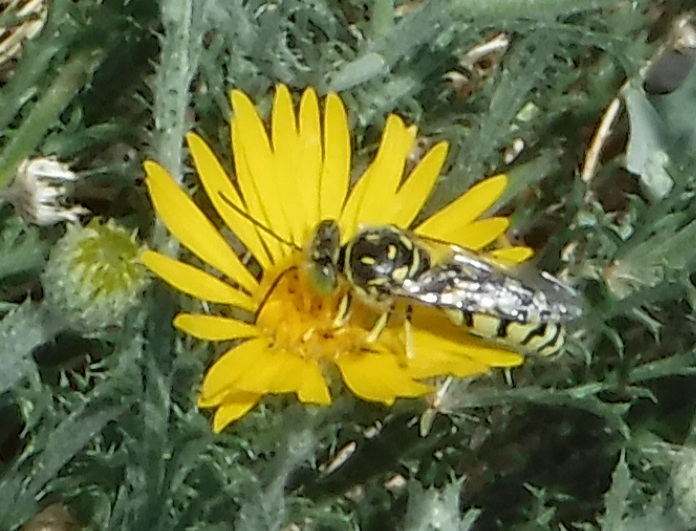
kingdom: Animalia
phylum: Arthropoda
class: Insecta
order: Hymenoptera
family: Crabronidae
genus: Steniolia
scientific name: Steniolia
